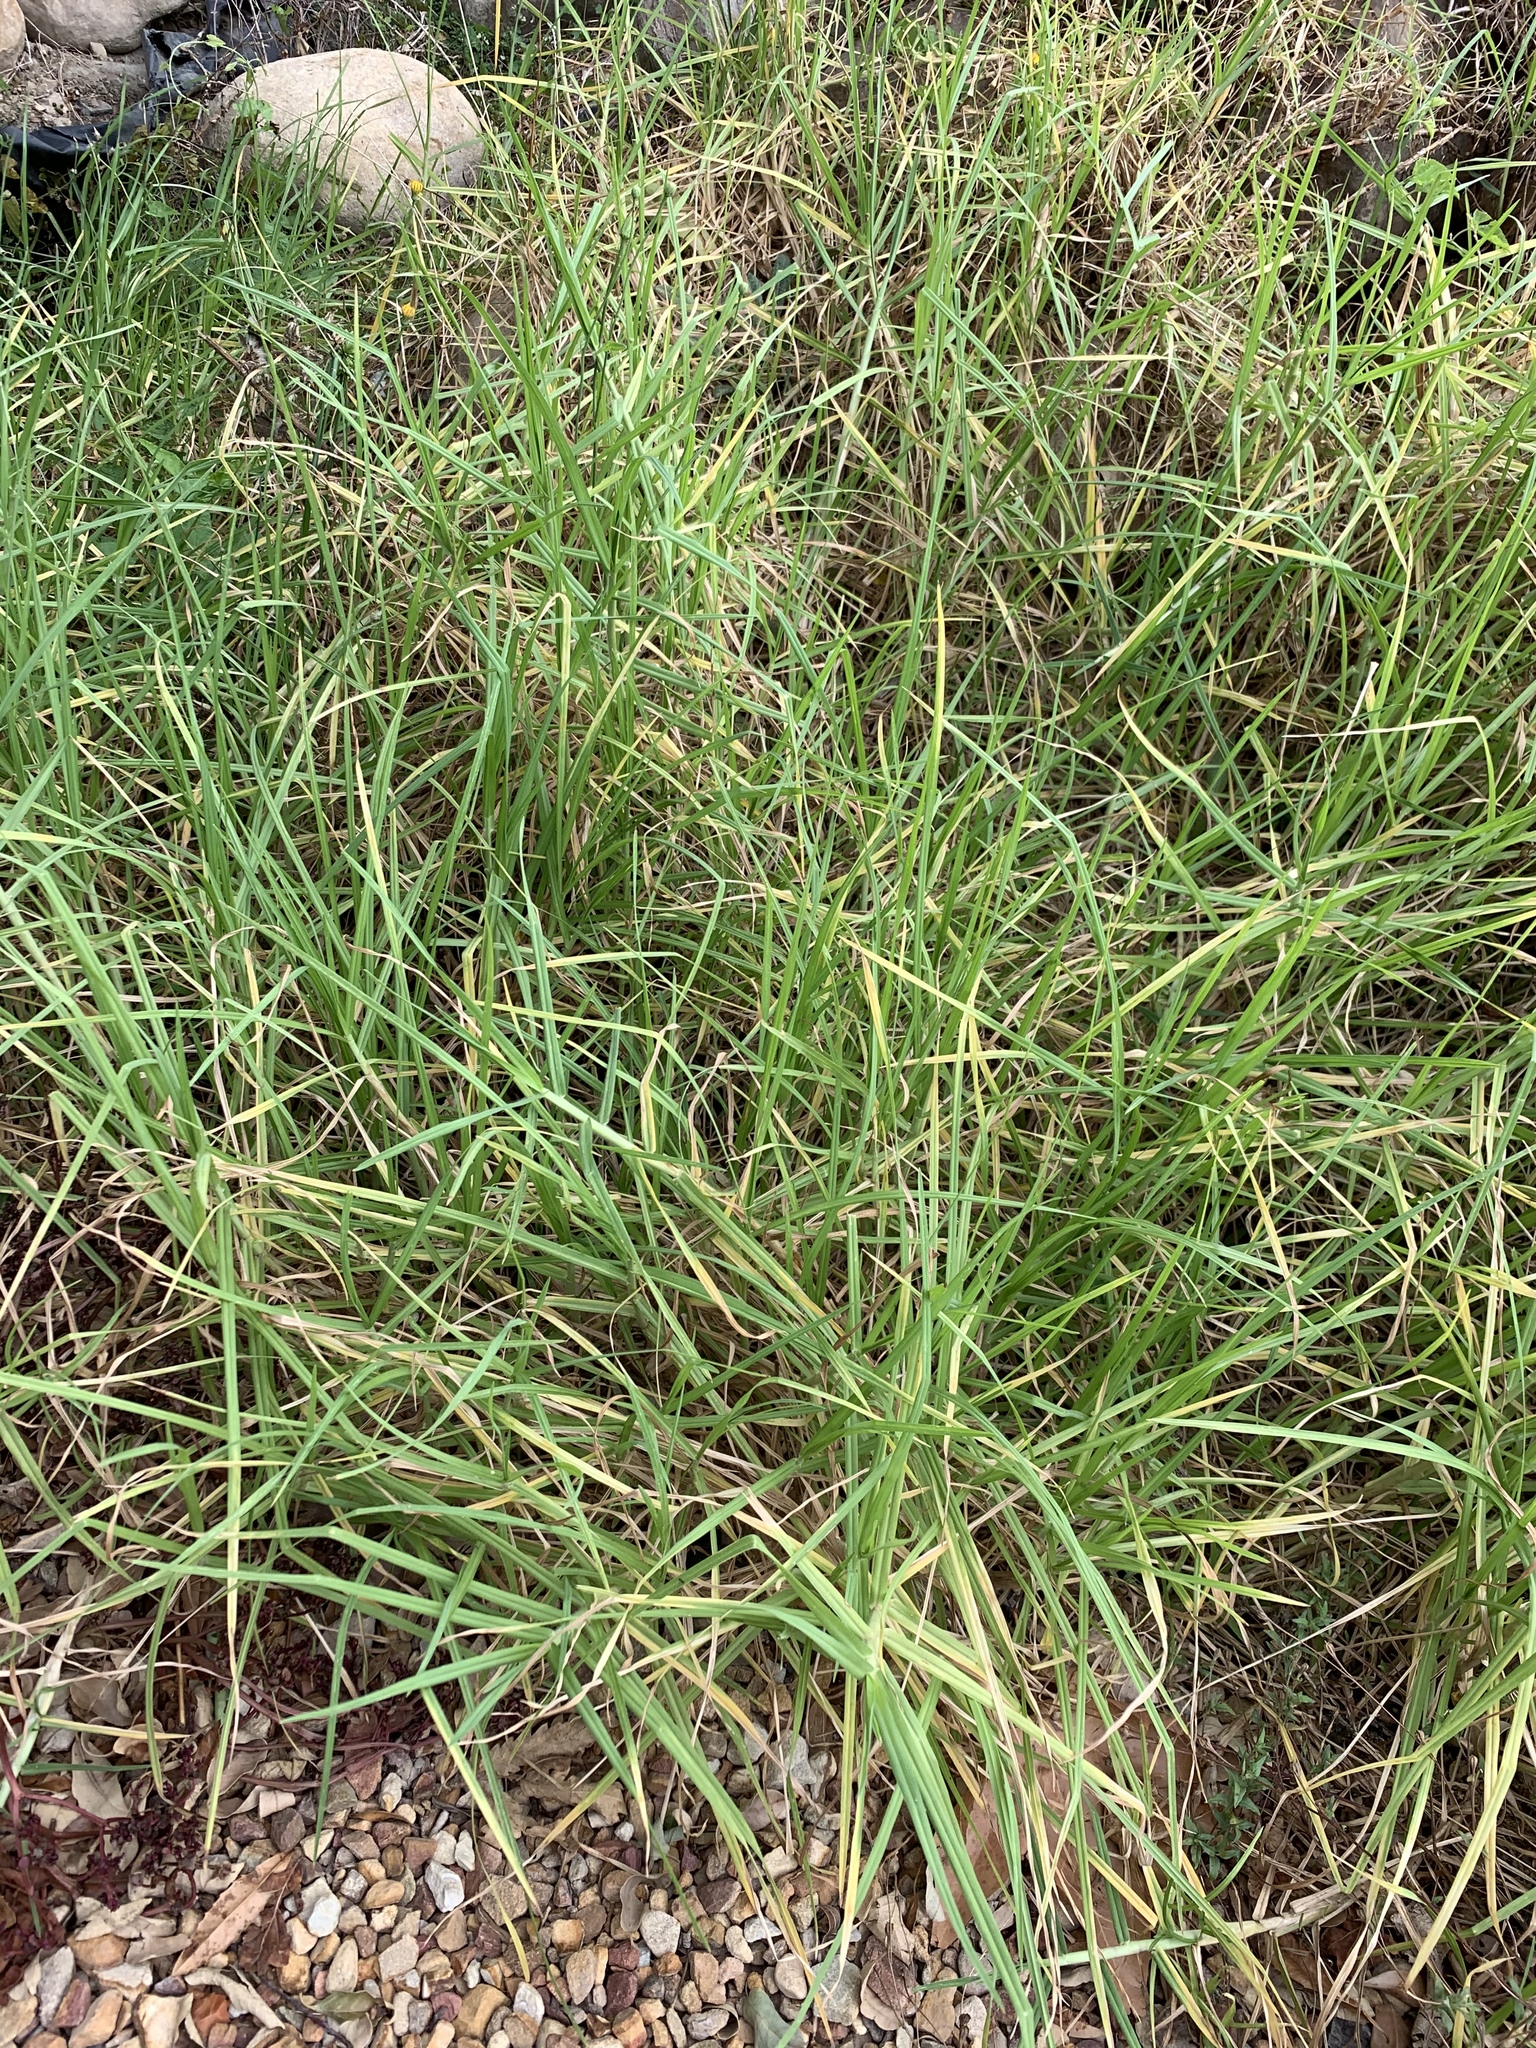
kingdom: Plantae
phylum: Tracheophyta
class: Liliopsida
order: Poales
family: Poaceae
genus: Cenchrus
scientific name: Cenchrus clandestinus
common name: Kikuyugrass
